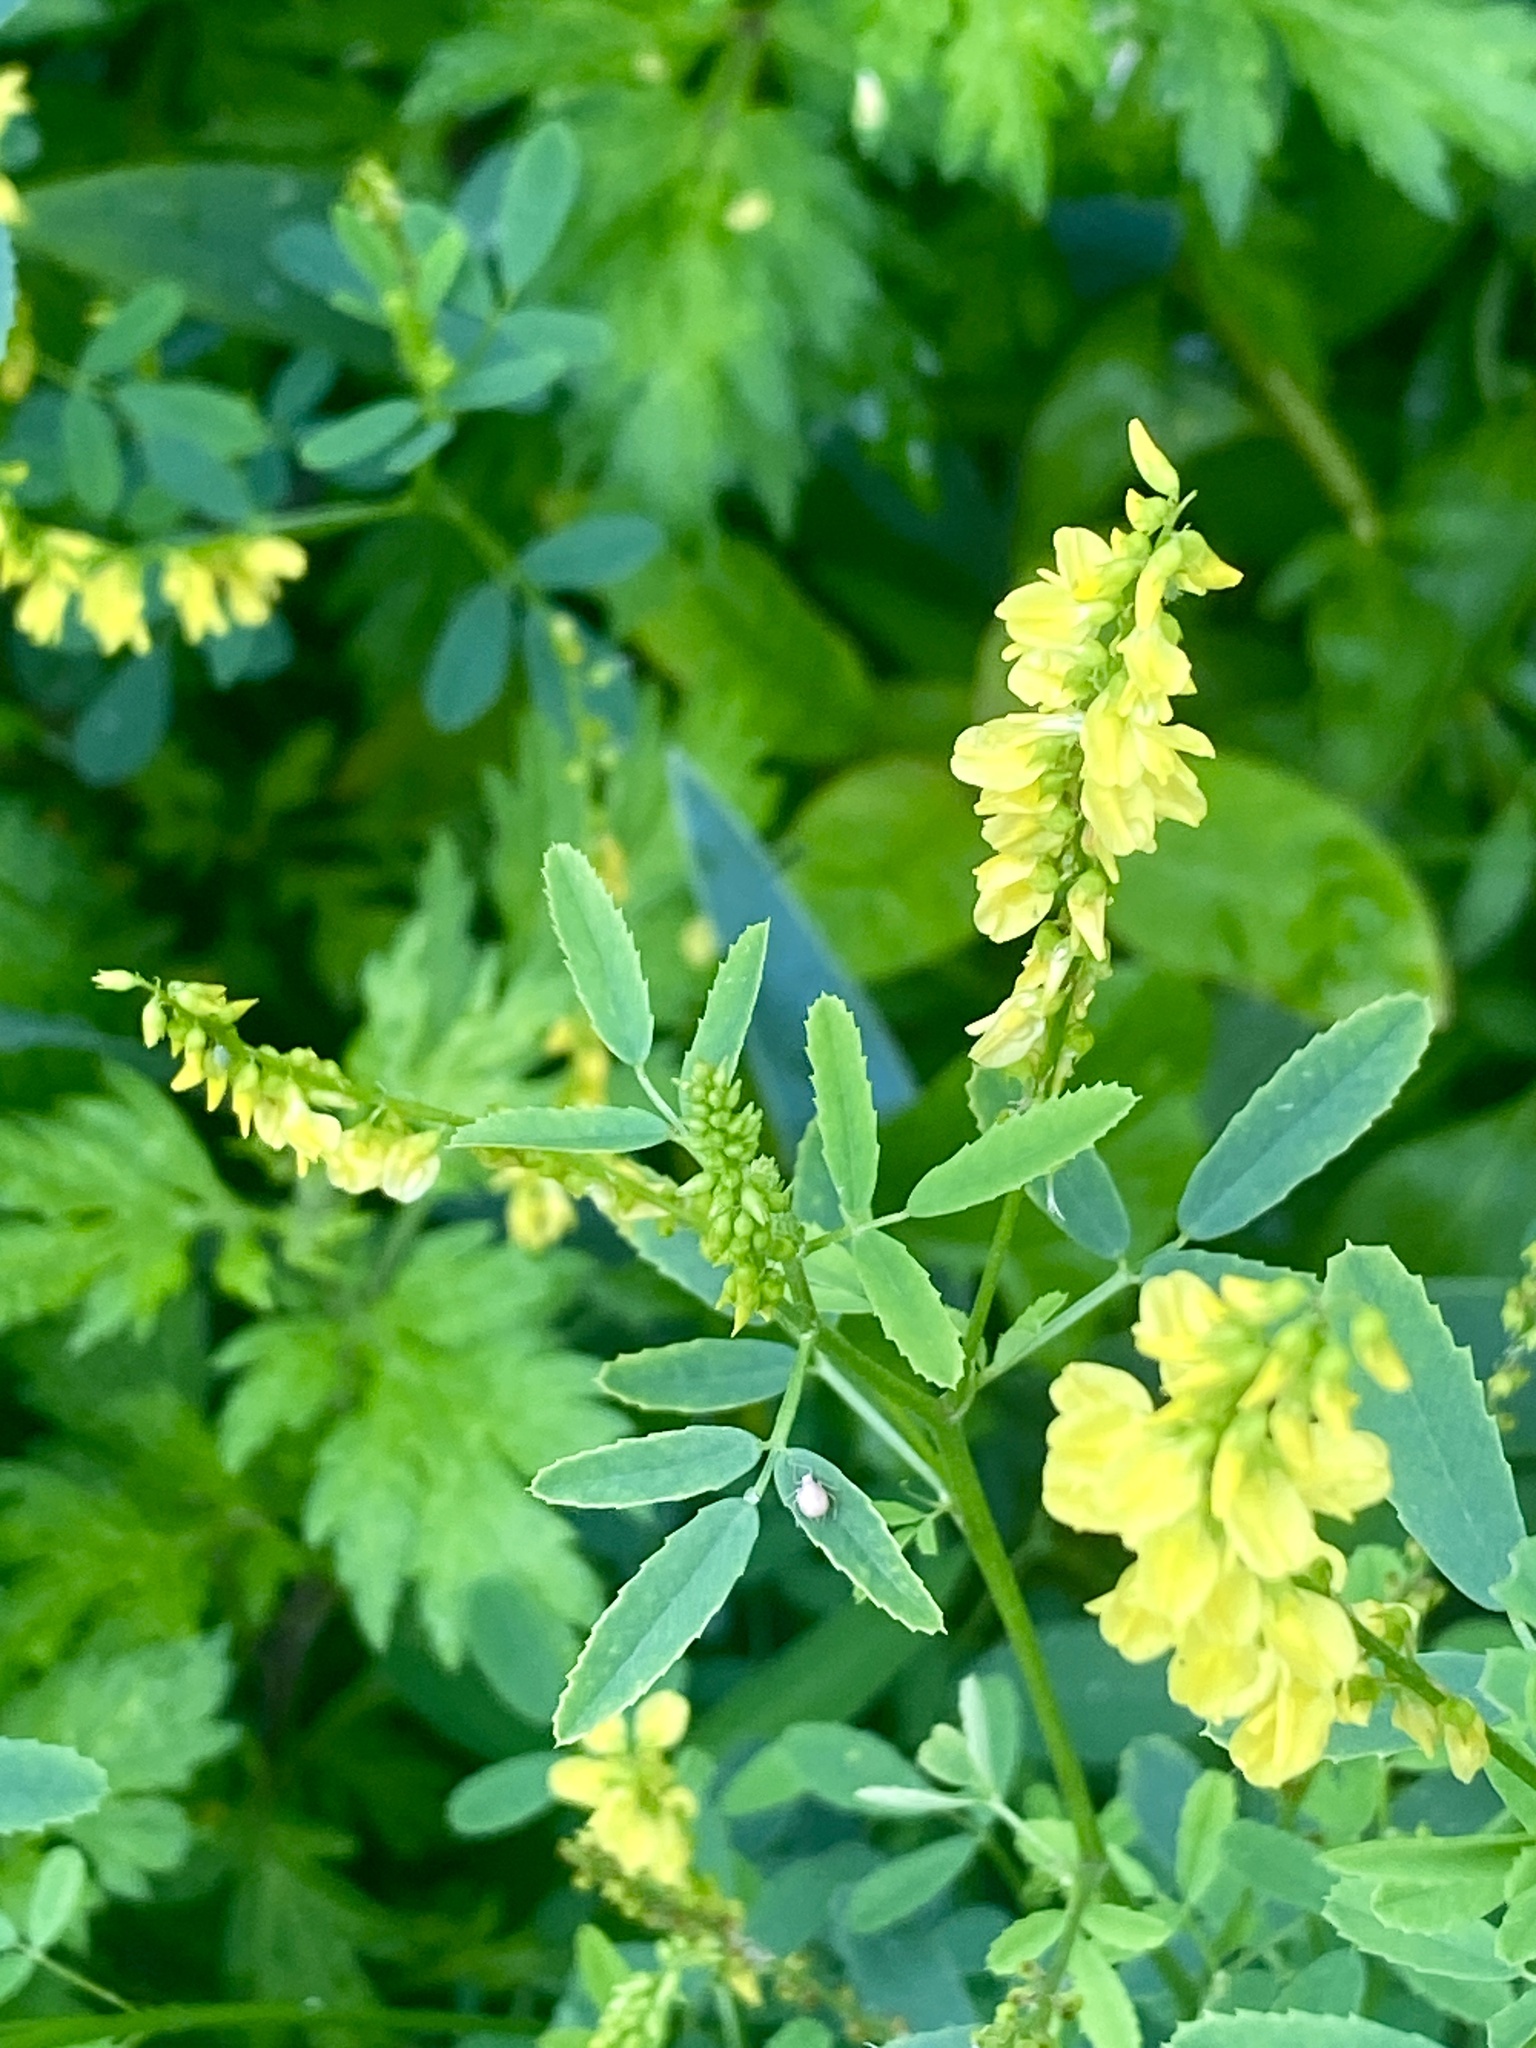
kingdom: Plantae
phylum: Tracheophyta
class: Magnoliopsida
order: Fabales
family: Fabaceae
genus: Melilotus
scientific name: Melilotus officinalis
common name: Sweetclover
